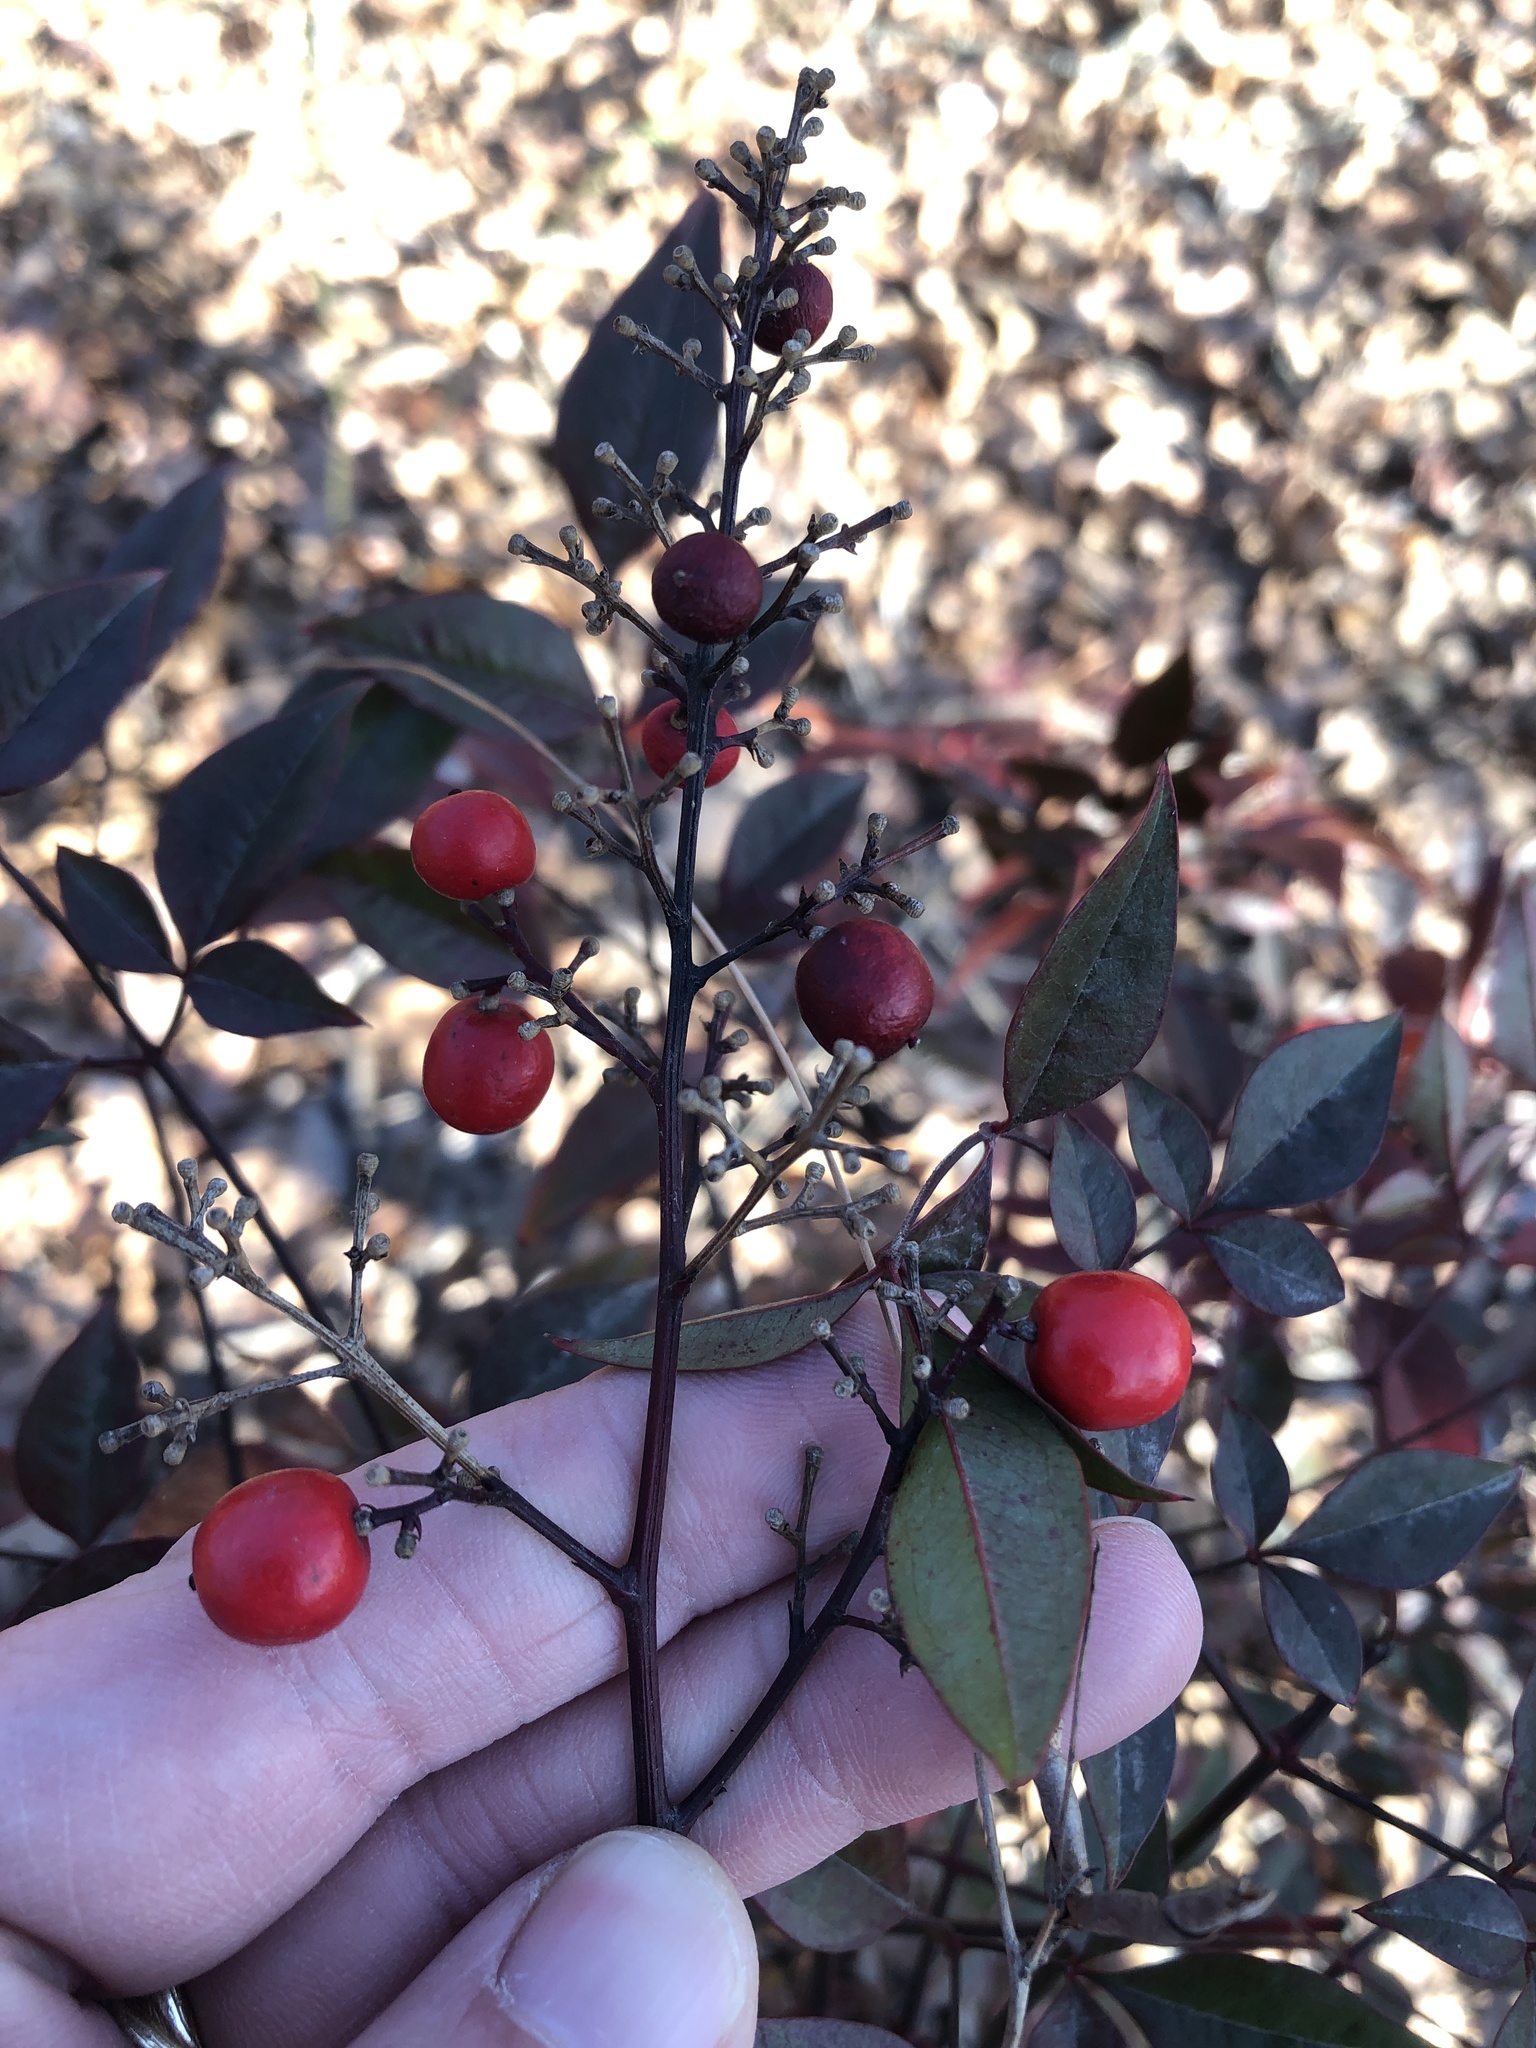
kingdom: Plantae
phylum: Tracheophyta
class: Magnoliopsida
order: Ranunculales
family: Berberidaceae
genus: Nandina
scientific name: Nandina domestica
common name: Sacred bamboo
